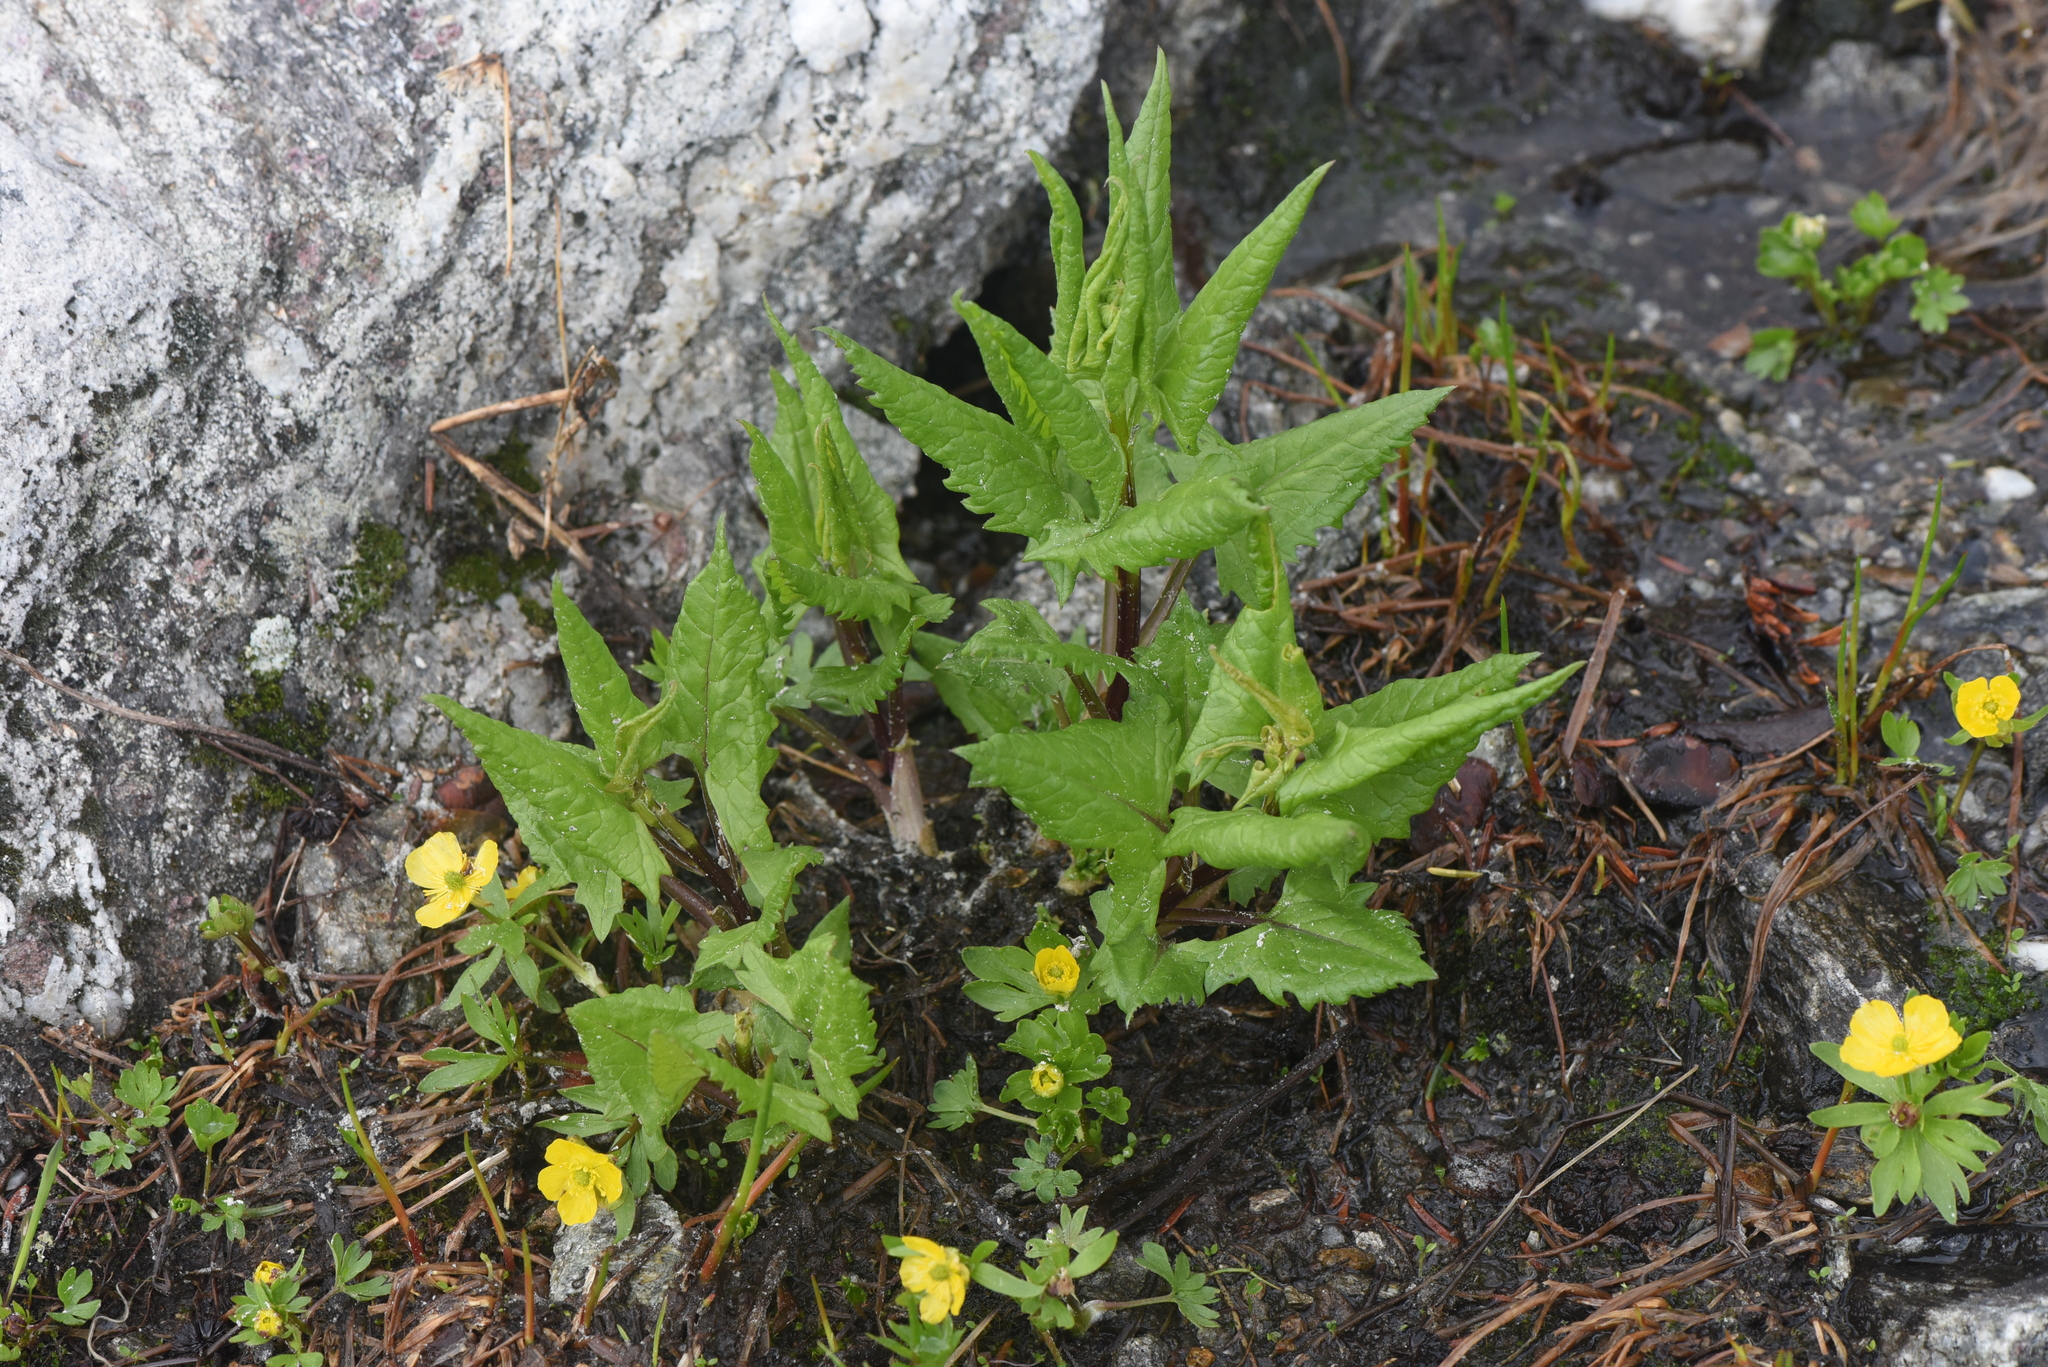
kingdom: Plantae
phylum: Tracheophyta
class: Magnoliopsida
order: Asterales
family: Asteraceae
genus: Senecio
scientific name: Senecio triangularis
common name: Arrowleaf butterweed
